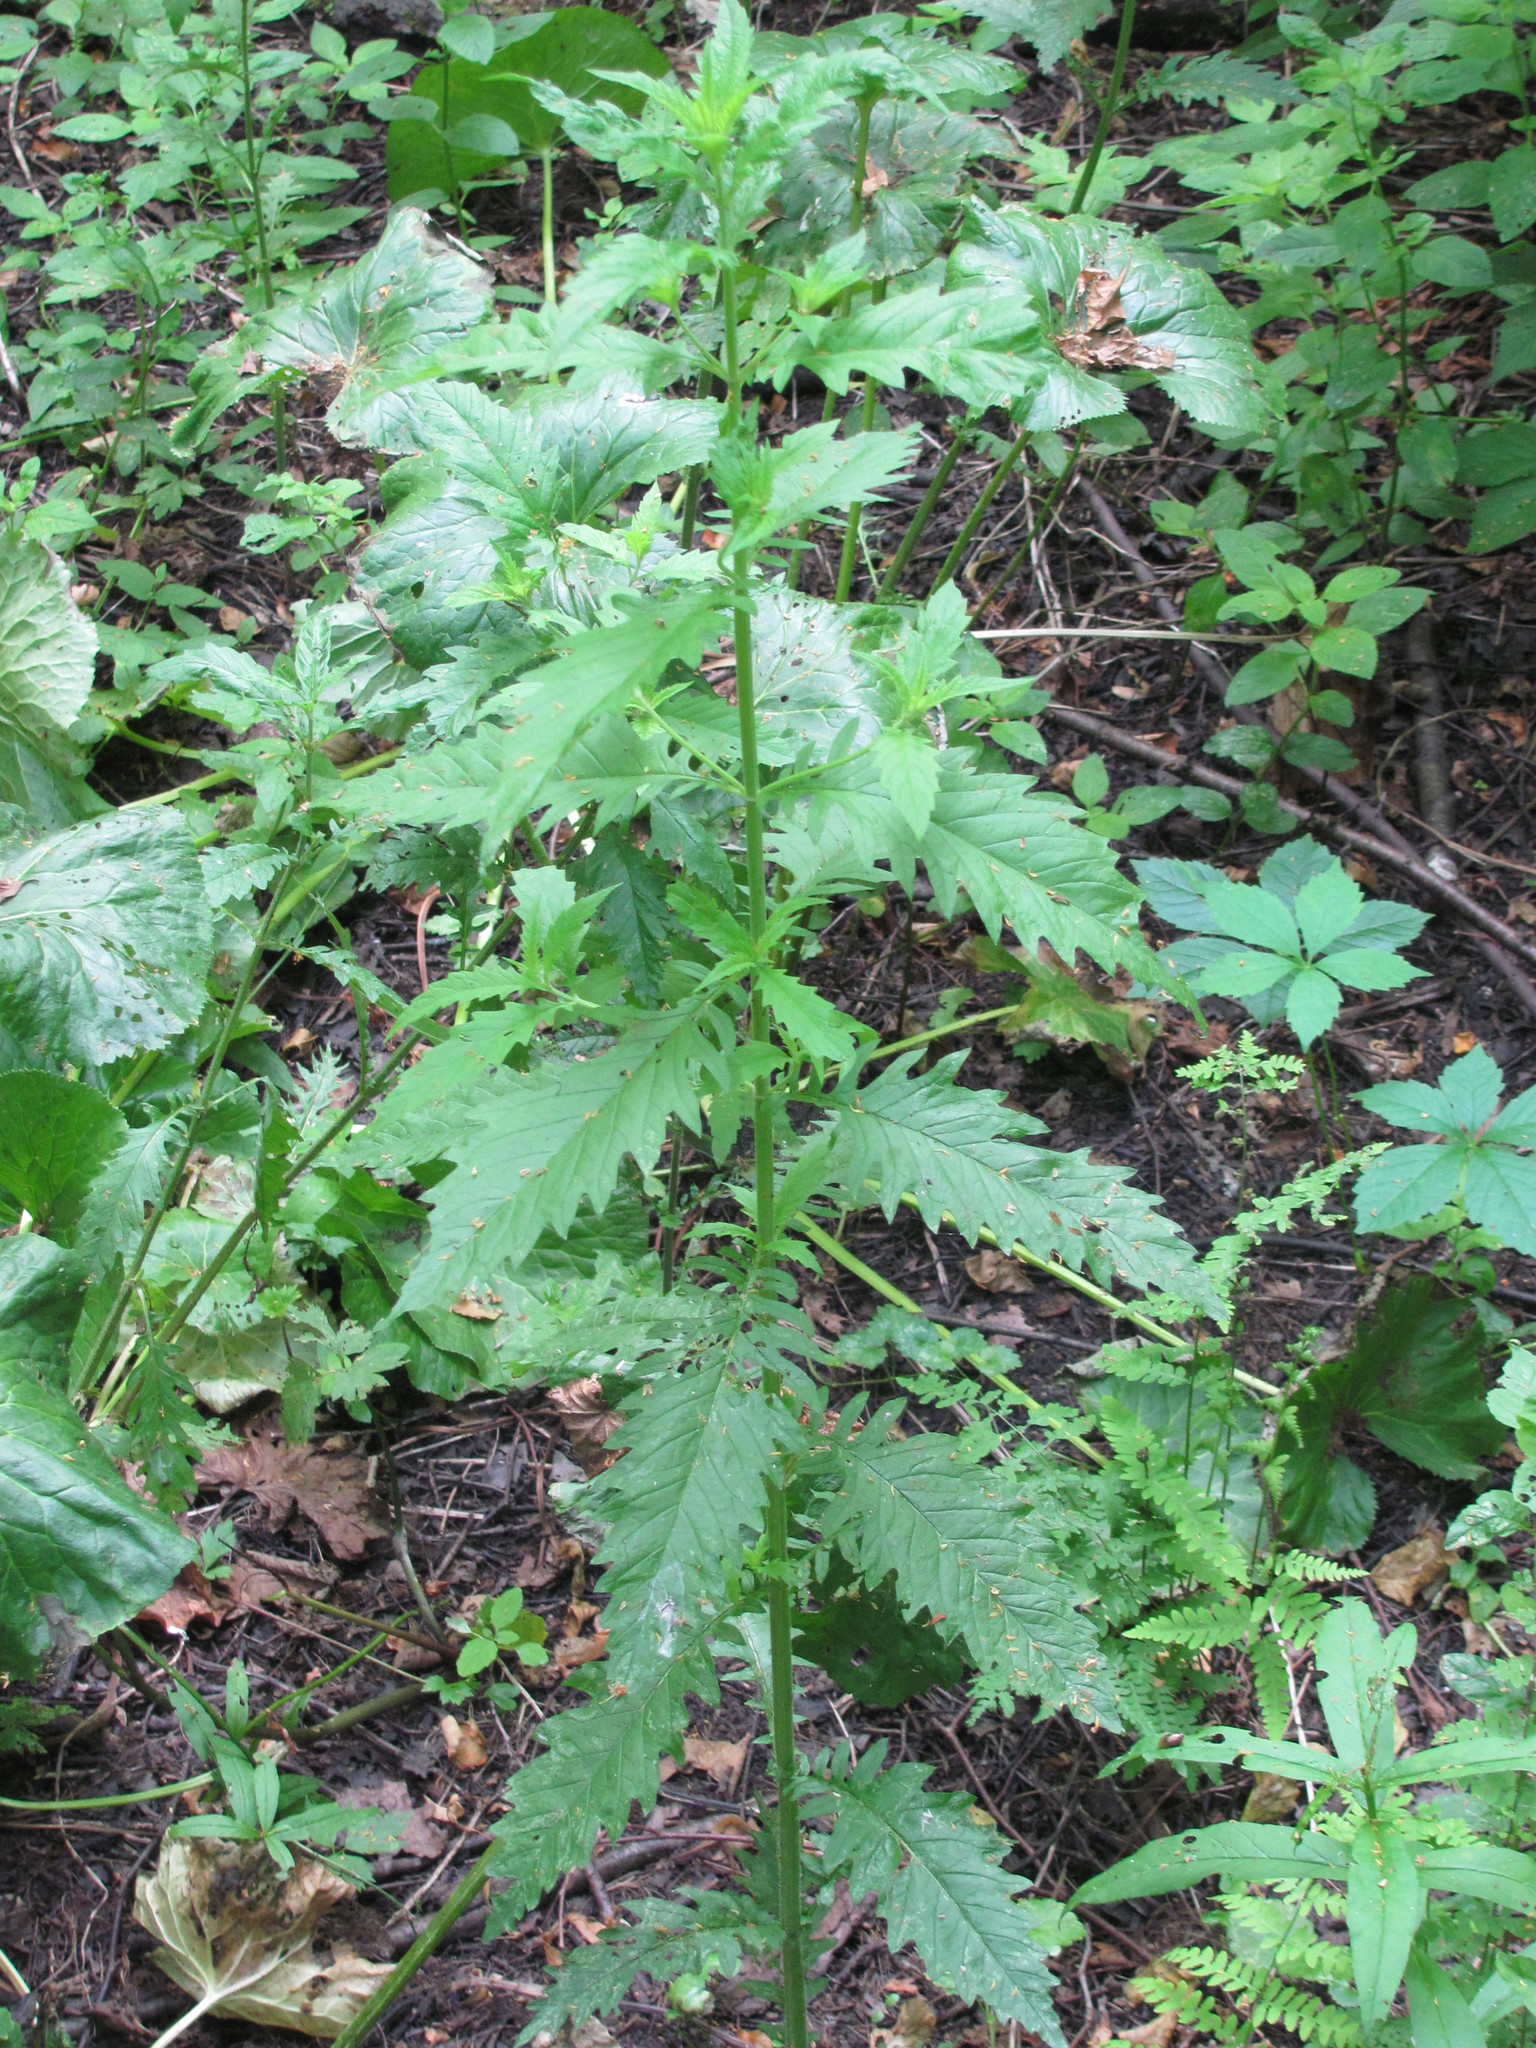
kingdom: Plantae
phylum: Tracheophyta
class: Magnoliopsida
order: Lamiales
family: Lamiaceae
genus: Lycopus
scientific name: Lycopus europaeus
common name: European bugleweed
